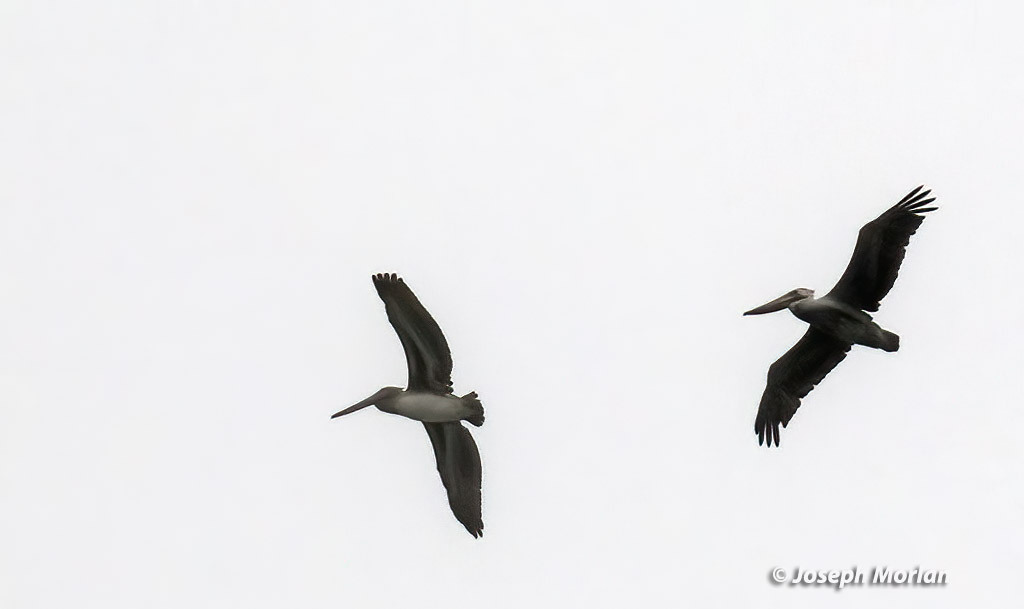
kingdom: Animalia
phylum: Chordata
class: Aves
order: Pelecaniformes
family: Pelecanidae
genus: Pelecanus
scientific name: Pelecanus occidentalis
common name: Brown pelican
